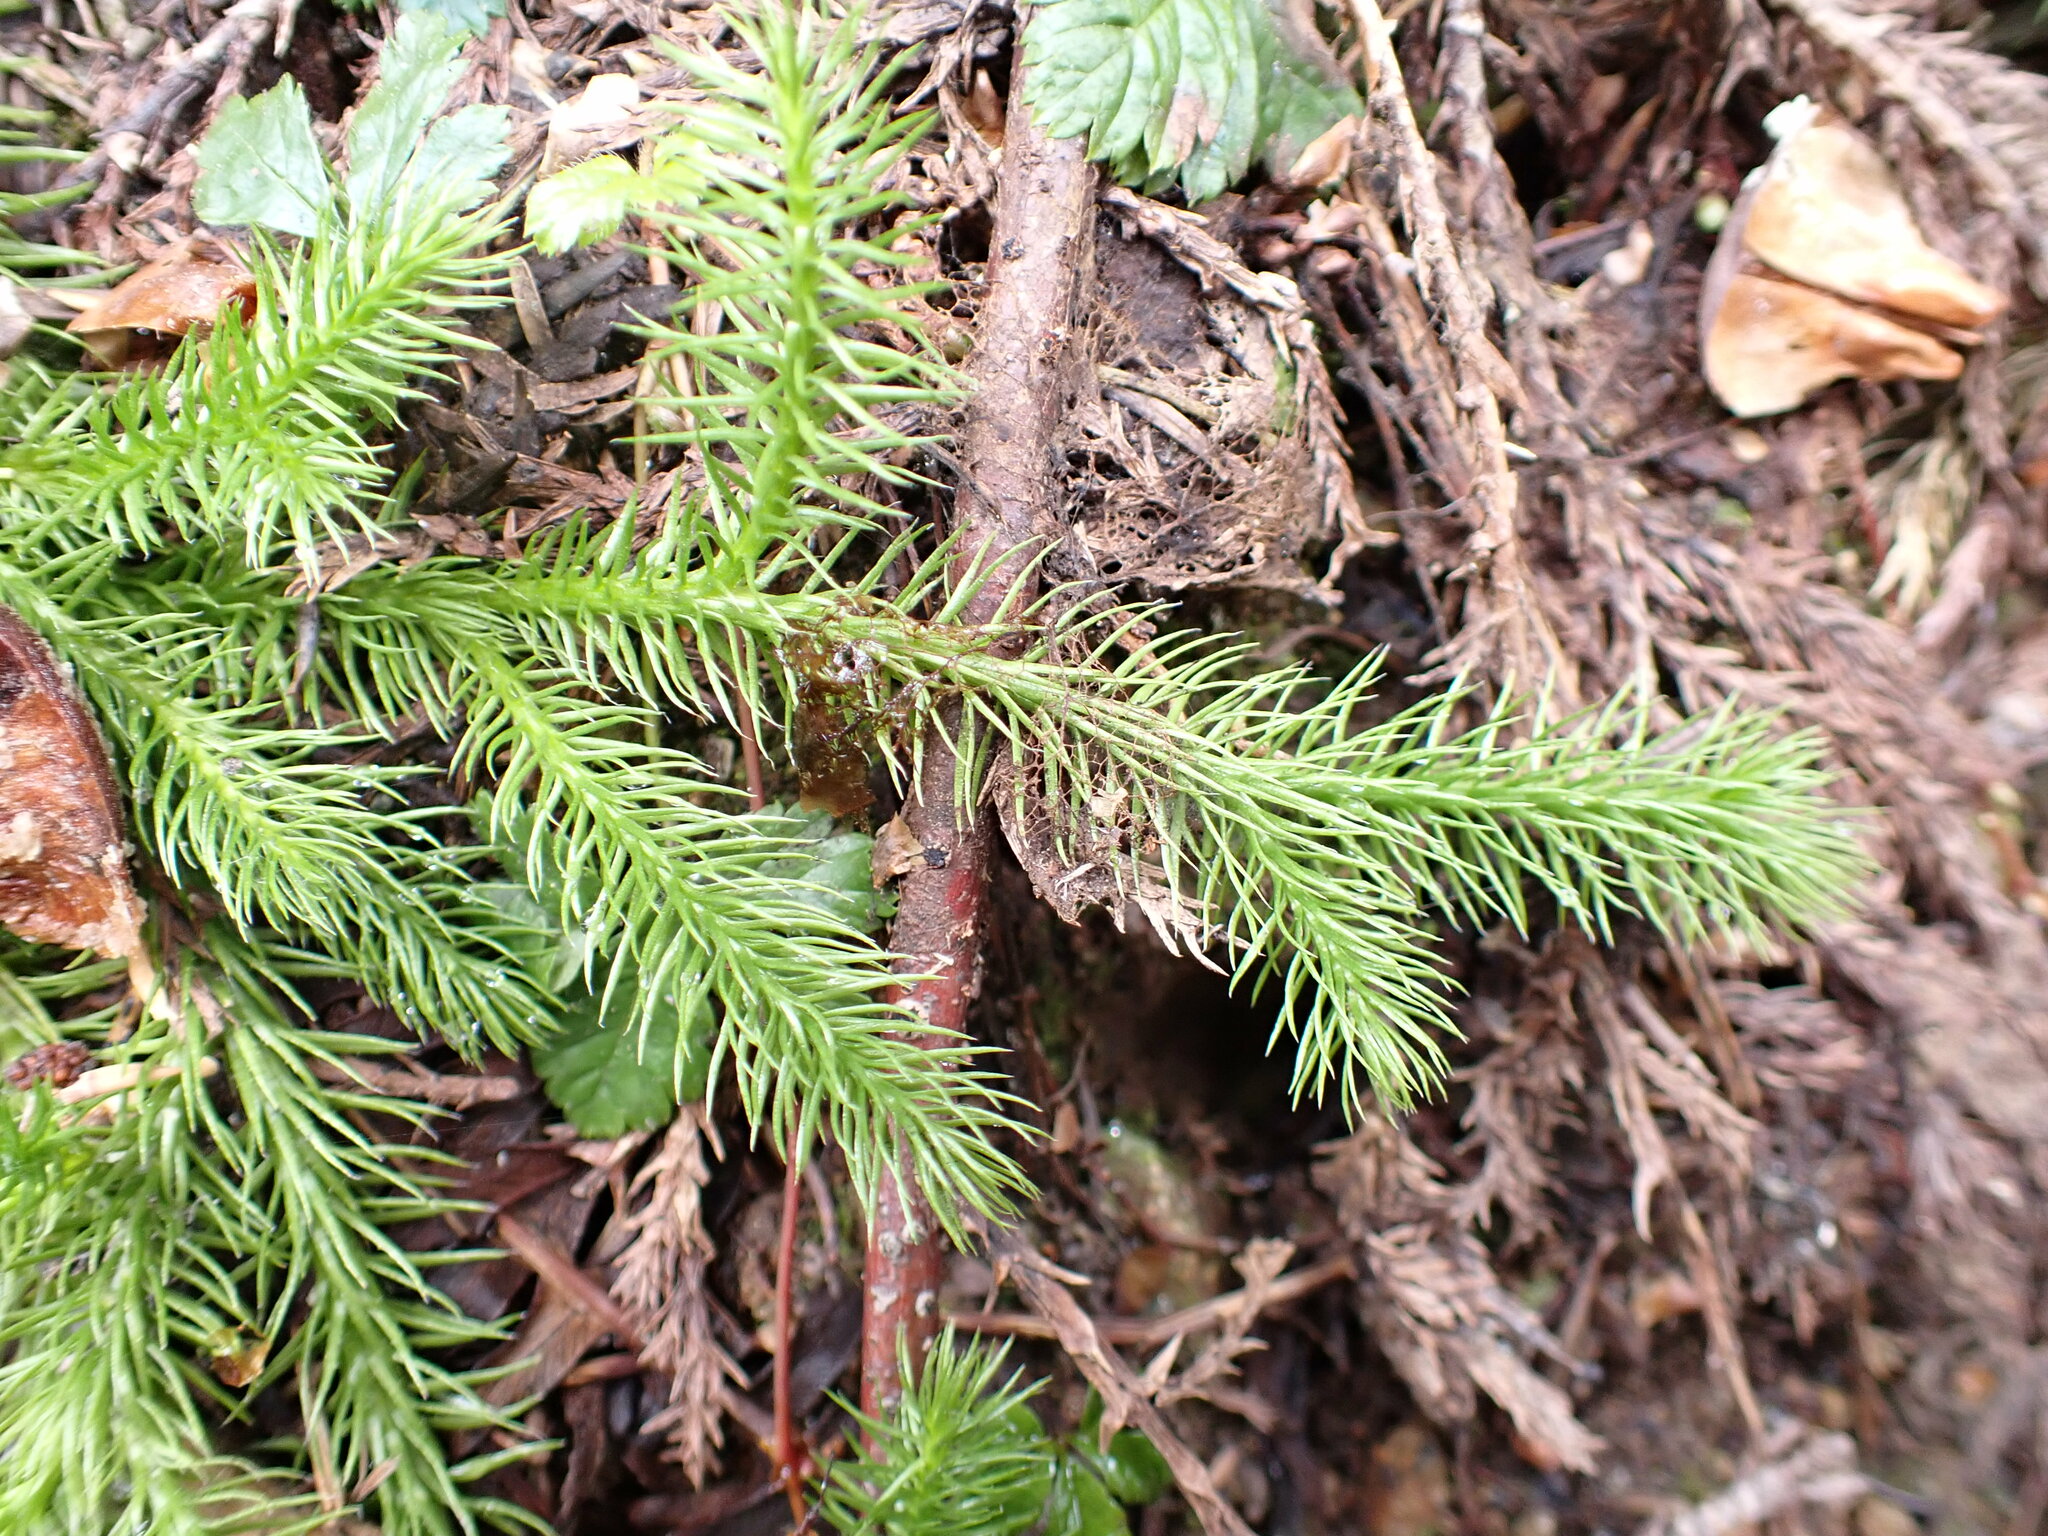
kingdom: Plantae
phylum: Tracheophyta
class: Lycopodiopsida
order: Lycopodiales
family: Lycopodiaceae
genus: Lycopodium
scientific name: Lycopodium clavatum
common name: Stag's-horn clubmoss
